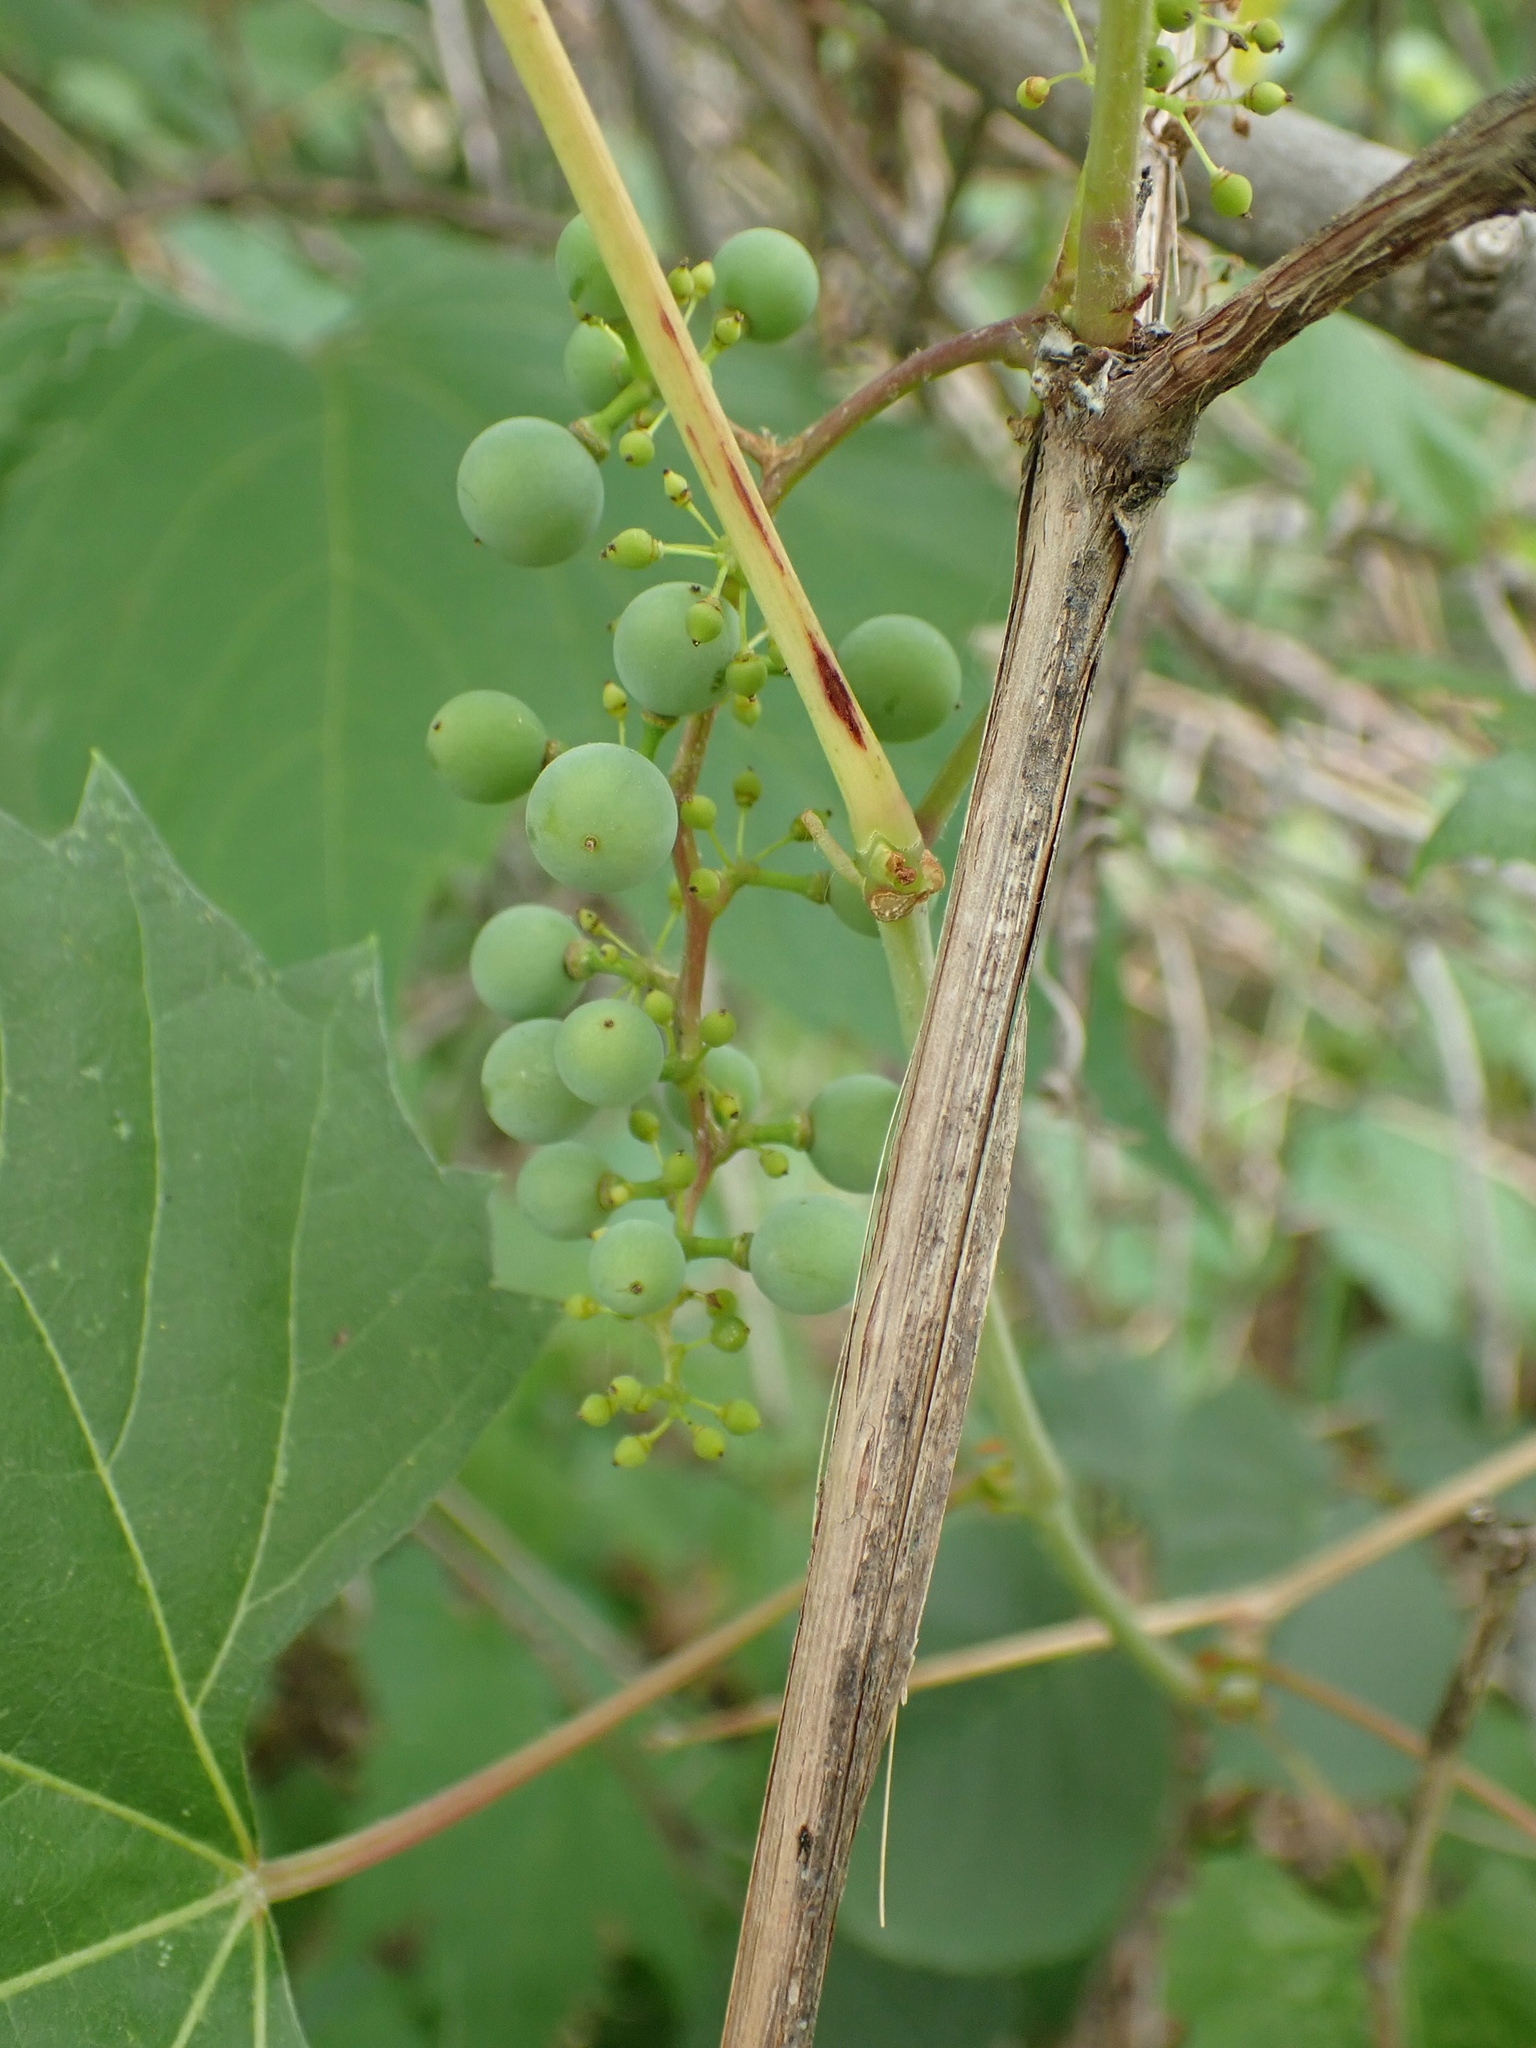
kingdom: Plantae
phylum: Tracheophyta
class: Magnoliopsida
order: Vitales
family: Vitaceae
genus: Vitis
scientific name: Vitis riparia
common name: Frost grape
